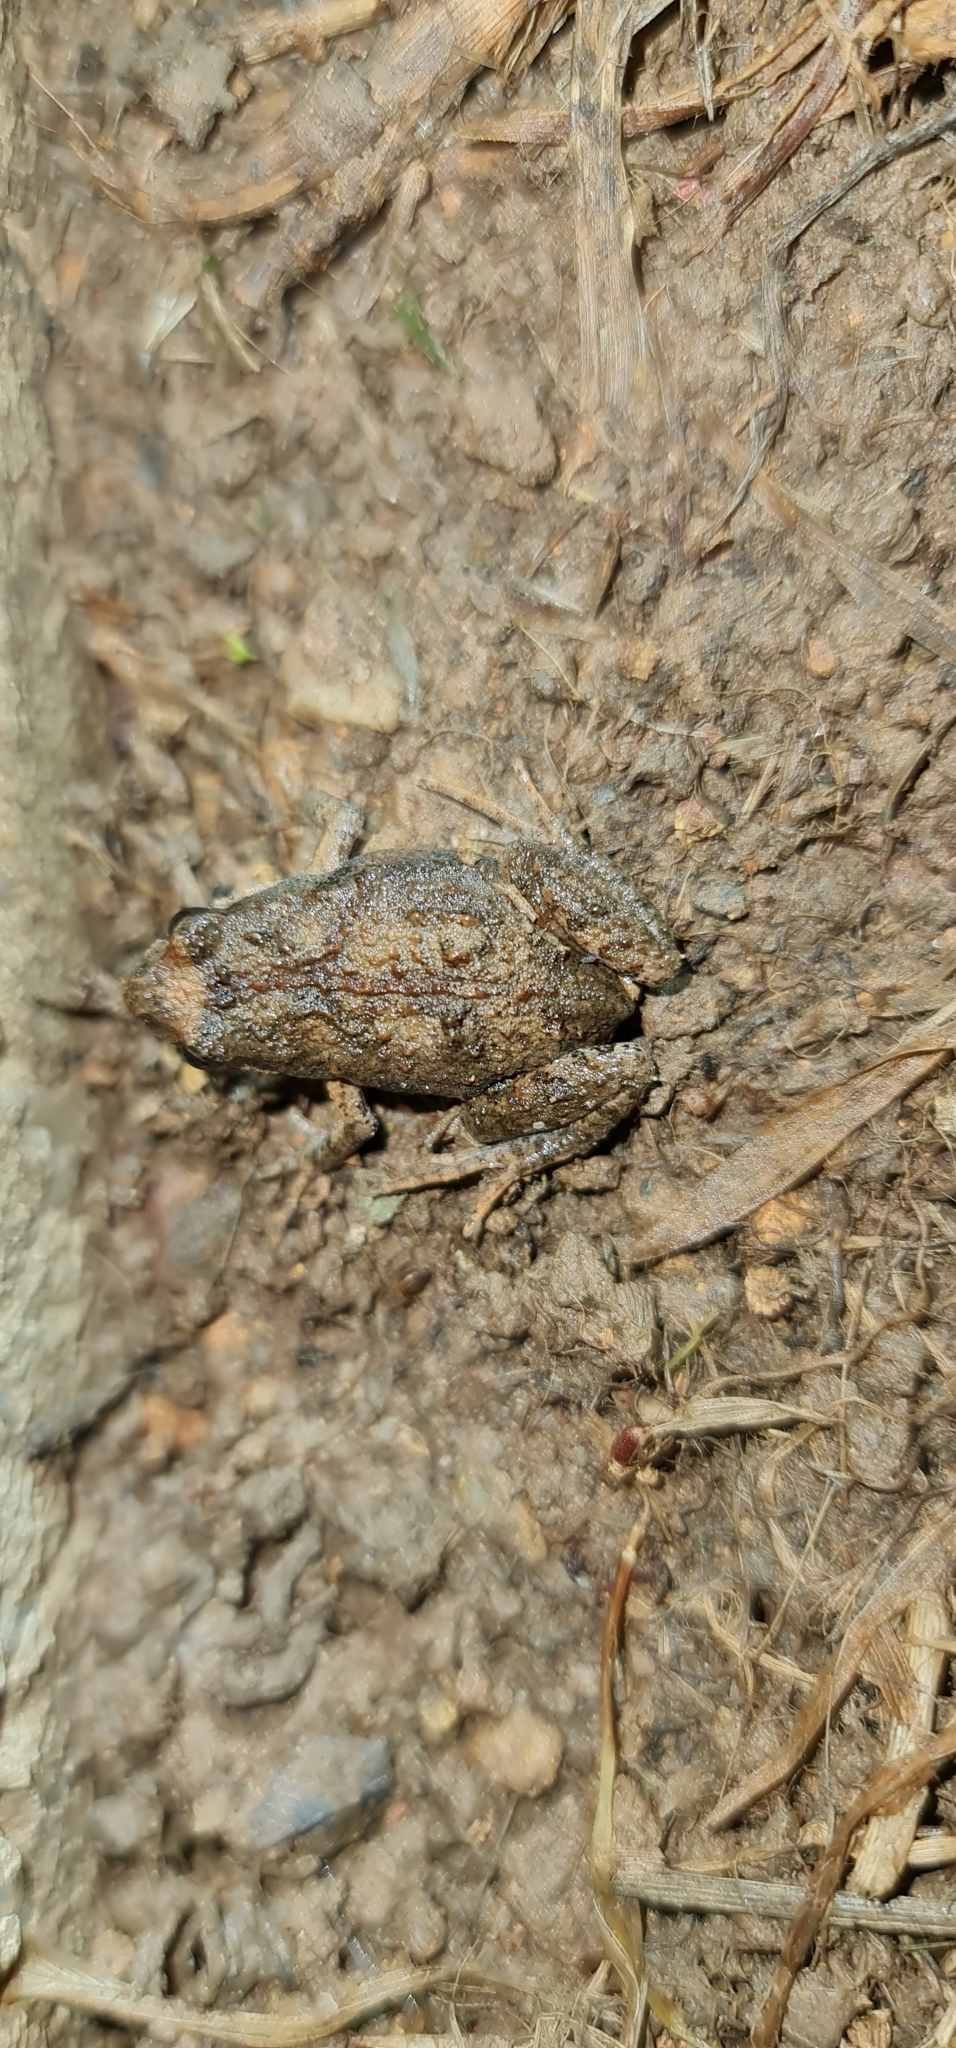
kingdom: Animalia
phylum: Chordata
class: Amphibia
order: Anura
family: Myobatrachidae
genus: Crinia
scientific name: Crinia signifera
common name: Brown froglet
